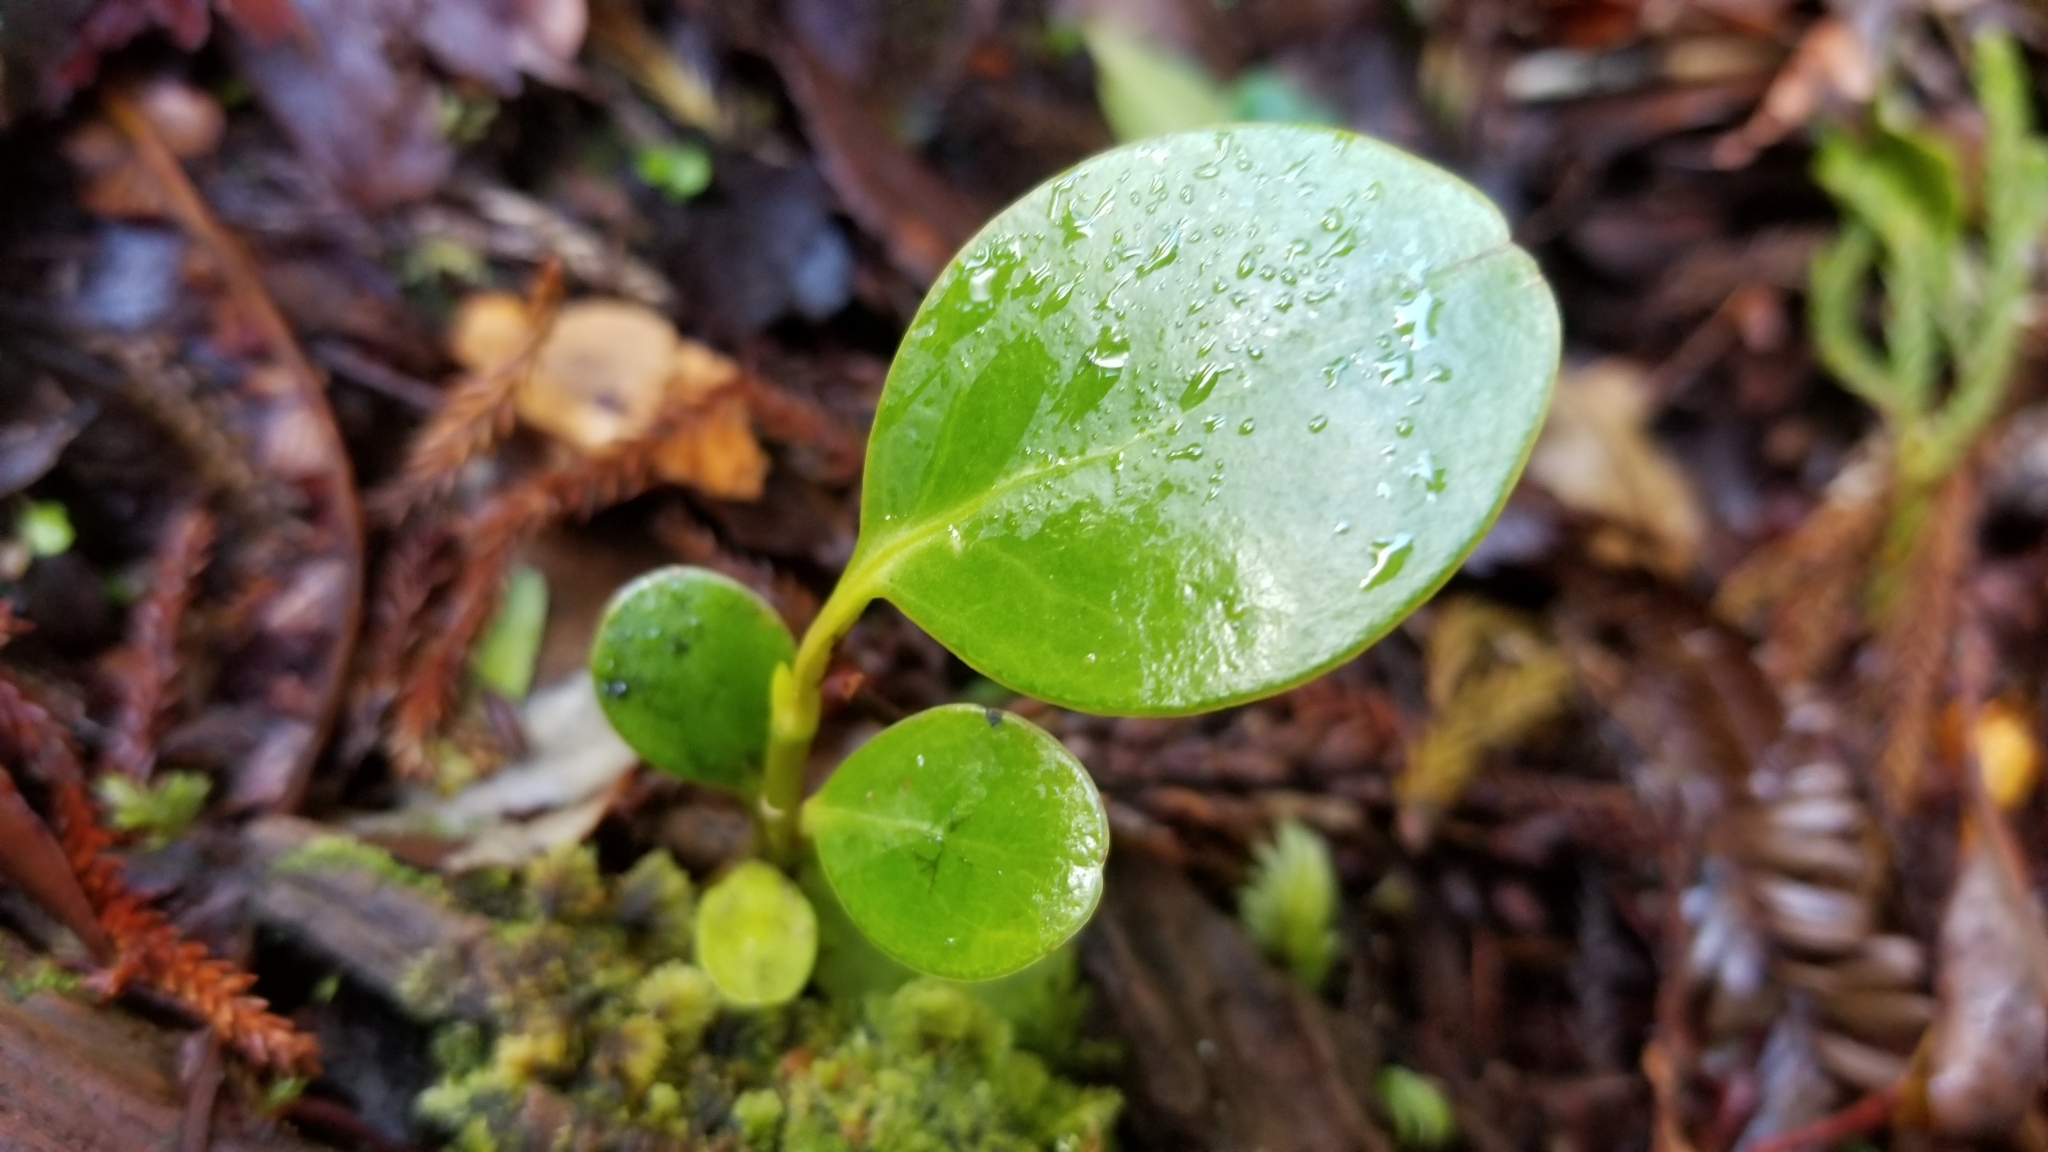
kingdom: Plantae
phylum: Tracheophyta
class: Magnoliopsida
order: Apiales
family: Griseliniaceae
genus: Griselinia
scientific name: Griselinia littoralis
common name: New zealand broadleaf
